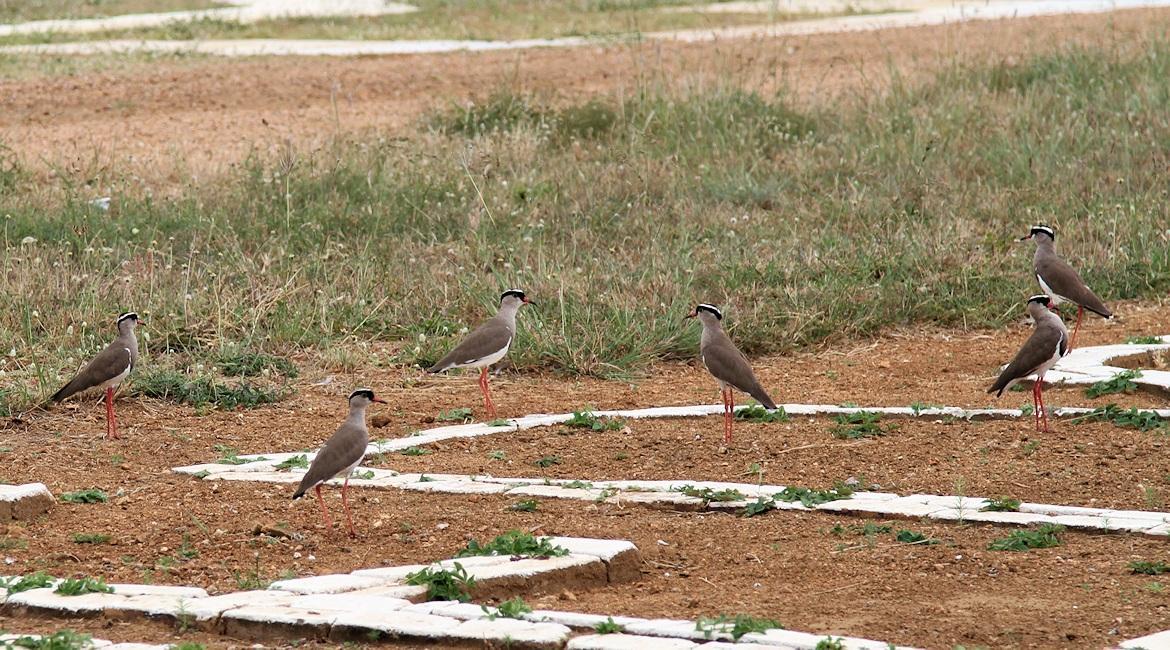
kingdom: Animalia
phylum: Chordata
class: Aves
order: Charadriiformes
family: Charadriidae
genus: Vanellus
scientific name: Vanellus coronatus
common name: Crowned lapwing
